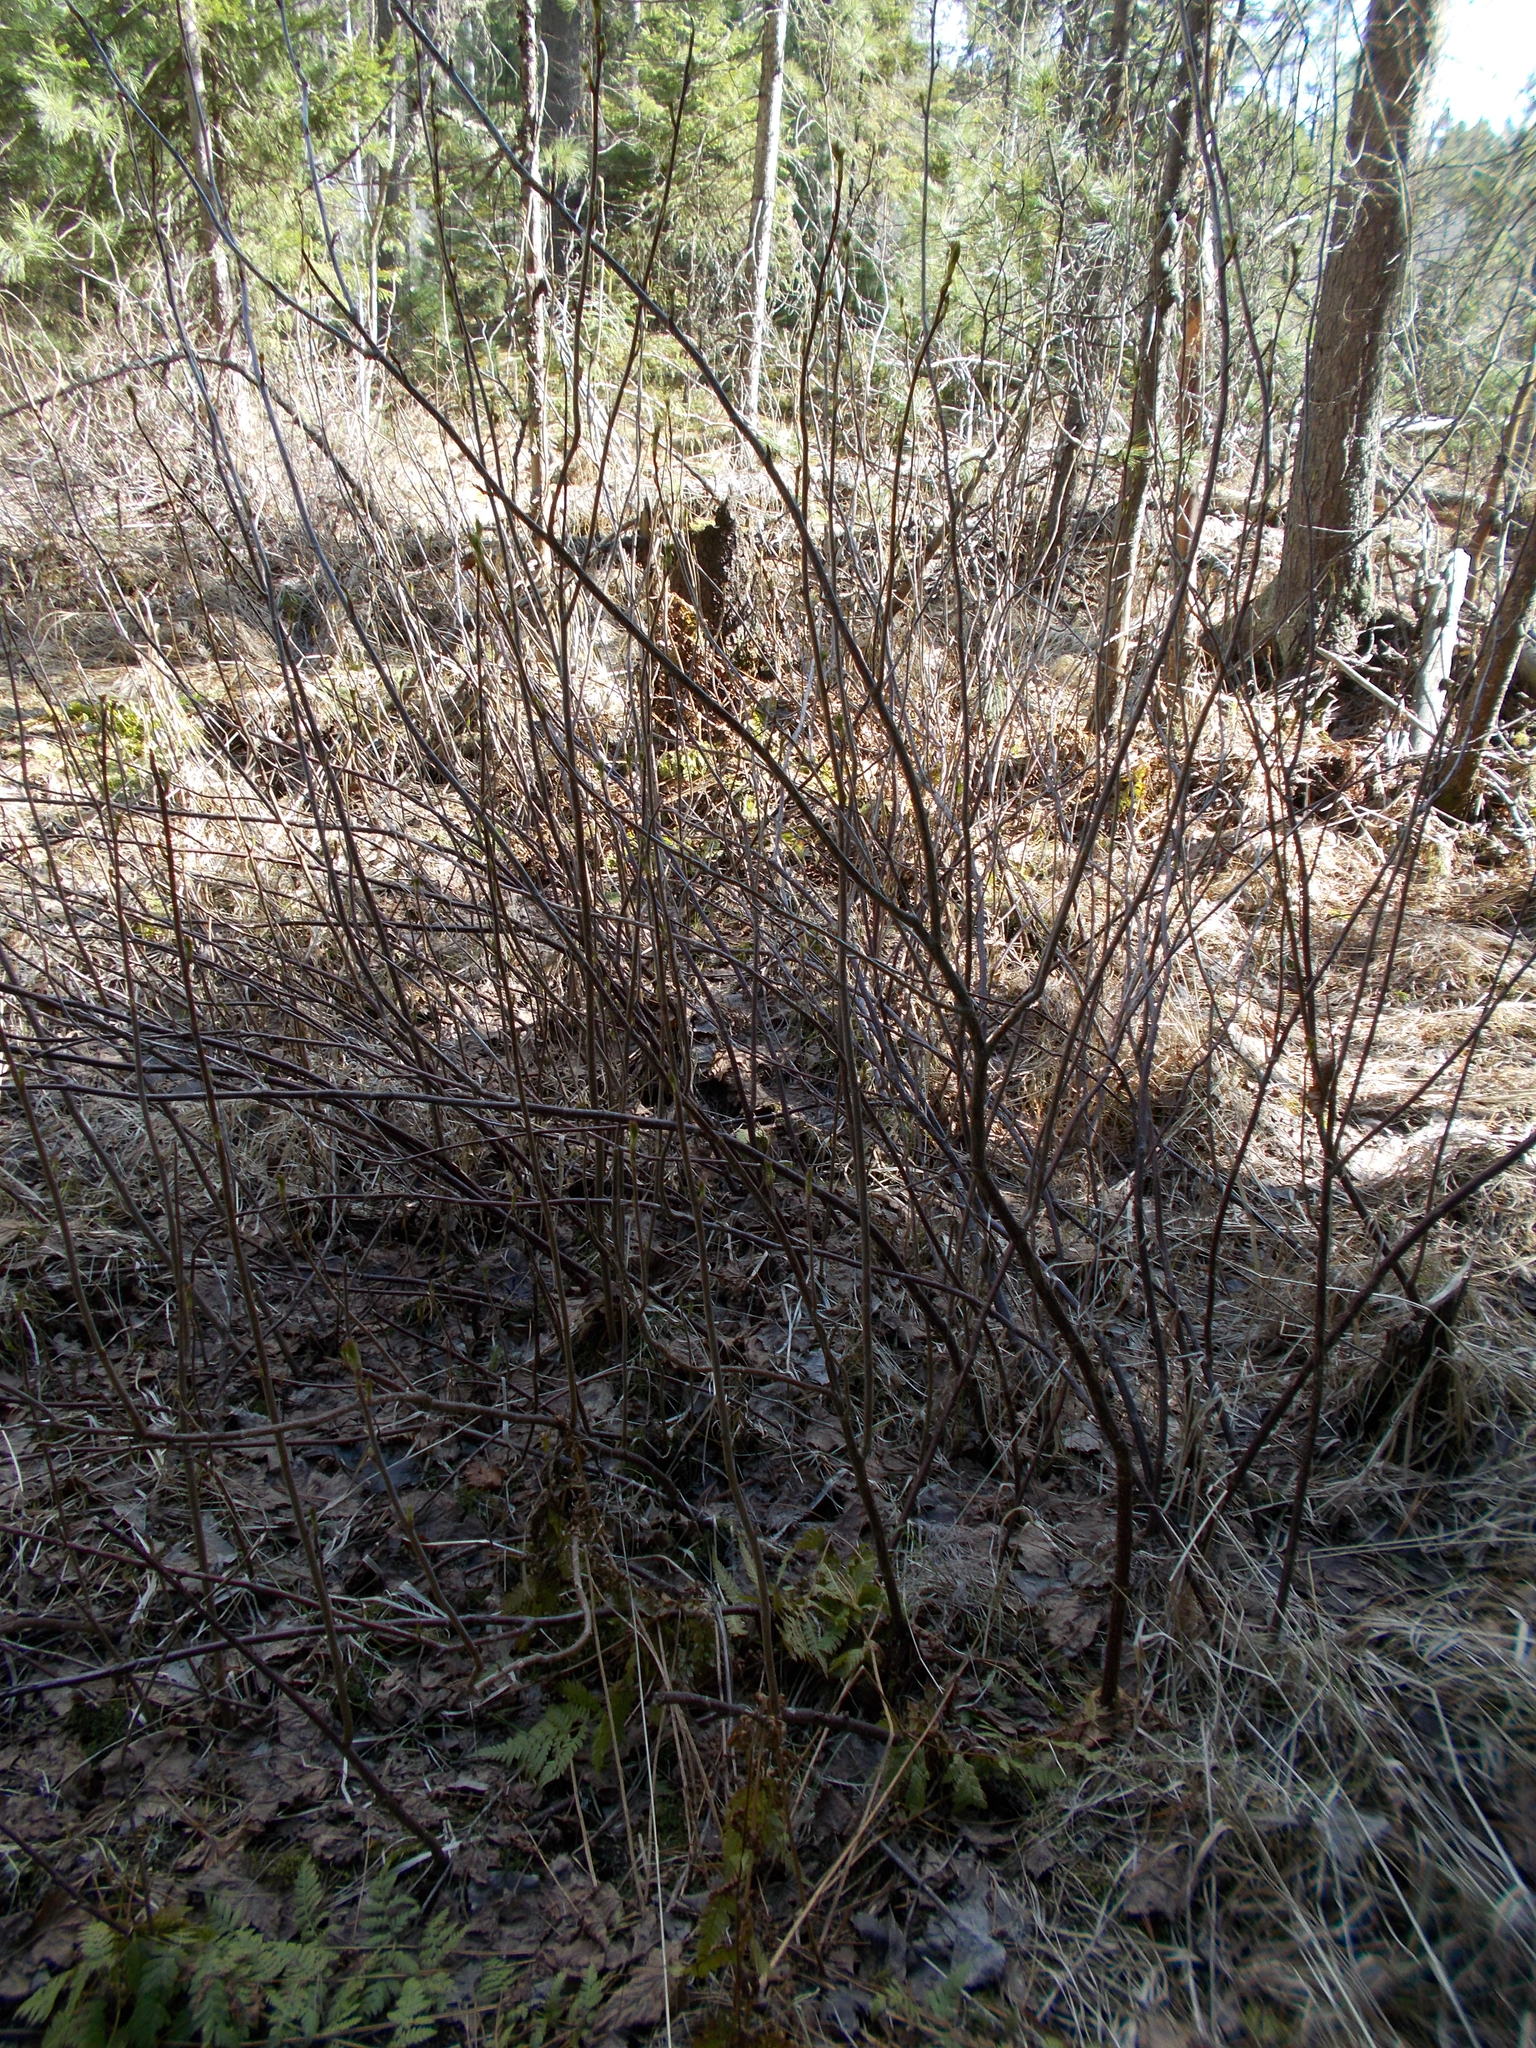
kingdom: Plantae
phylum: Tracheophyta
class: Magnoliopsida
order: Saxifragales
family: Grossulariaceae
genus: Ribes
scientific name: Ribes nigrum
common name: Black currant
